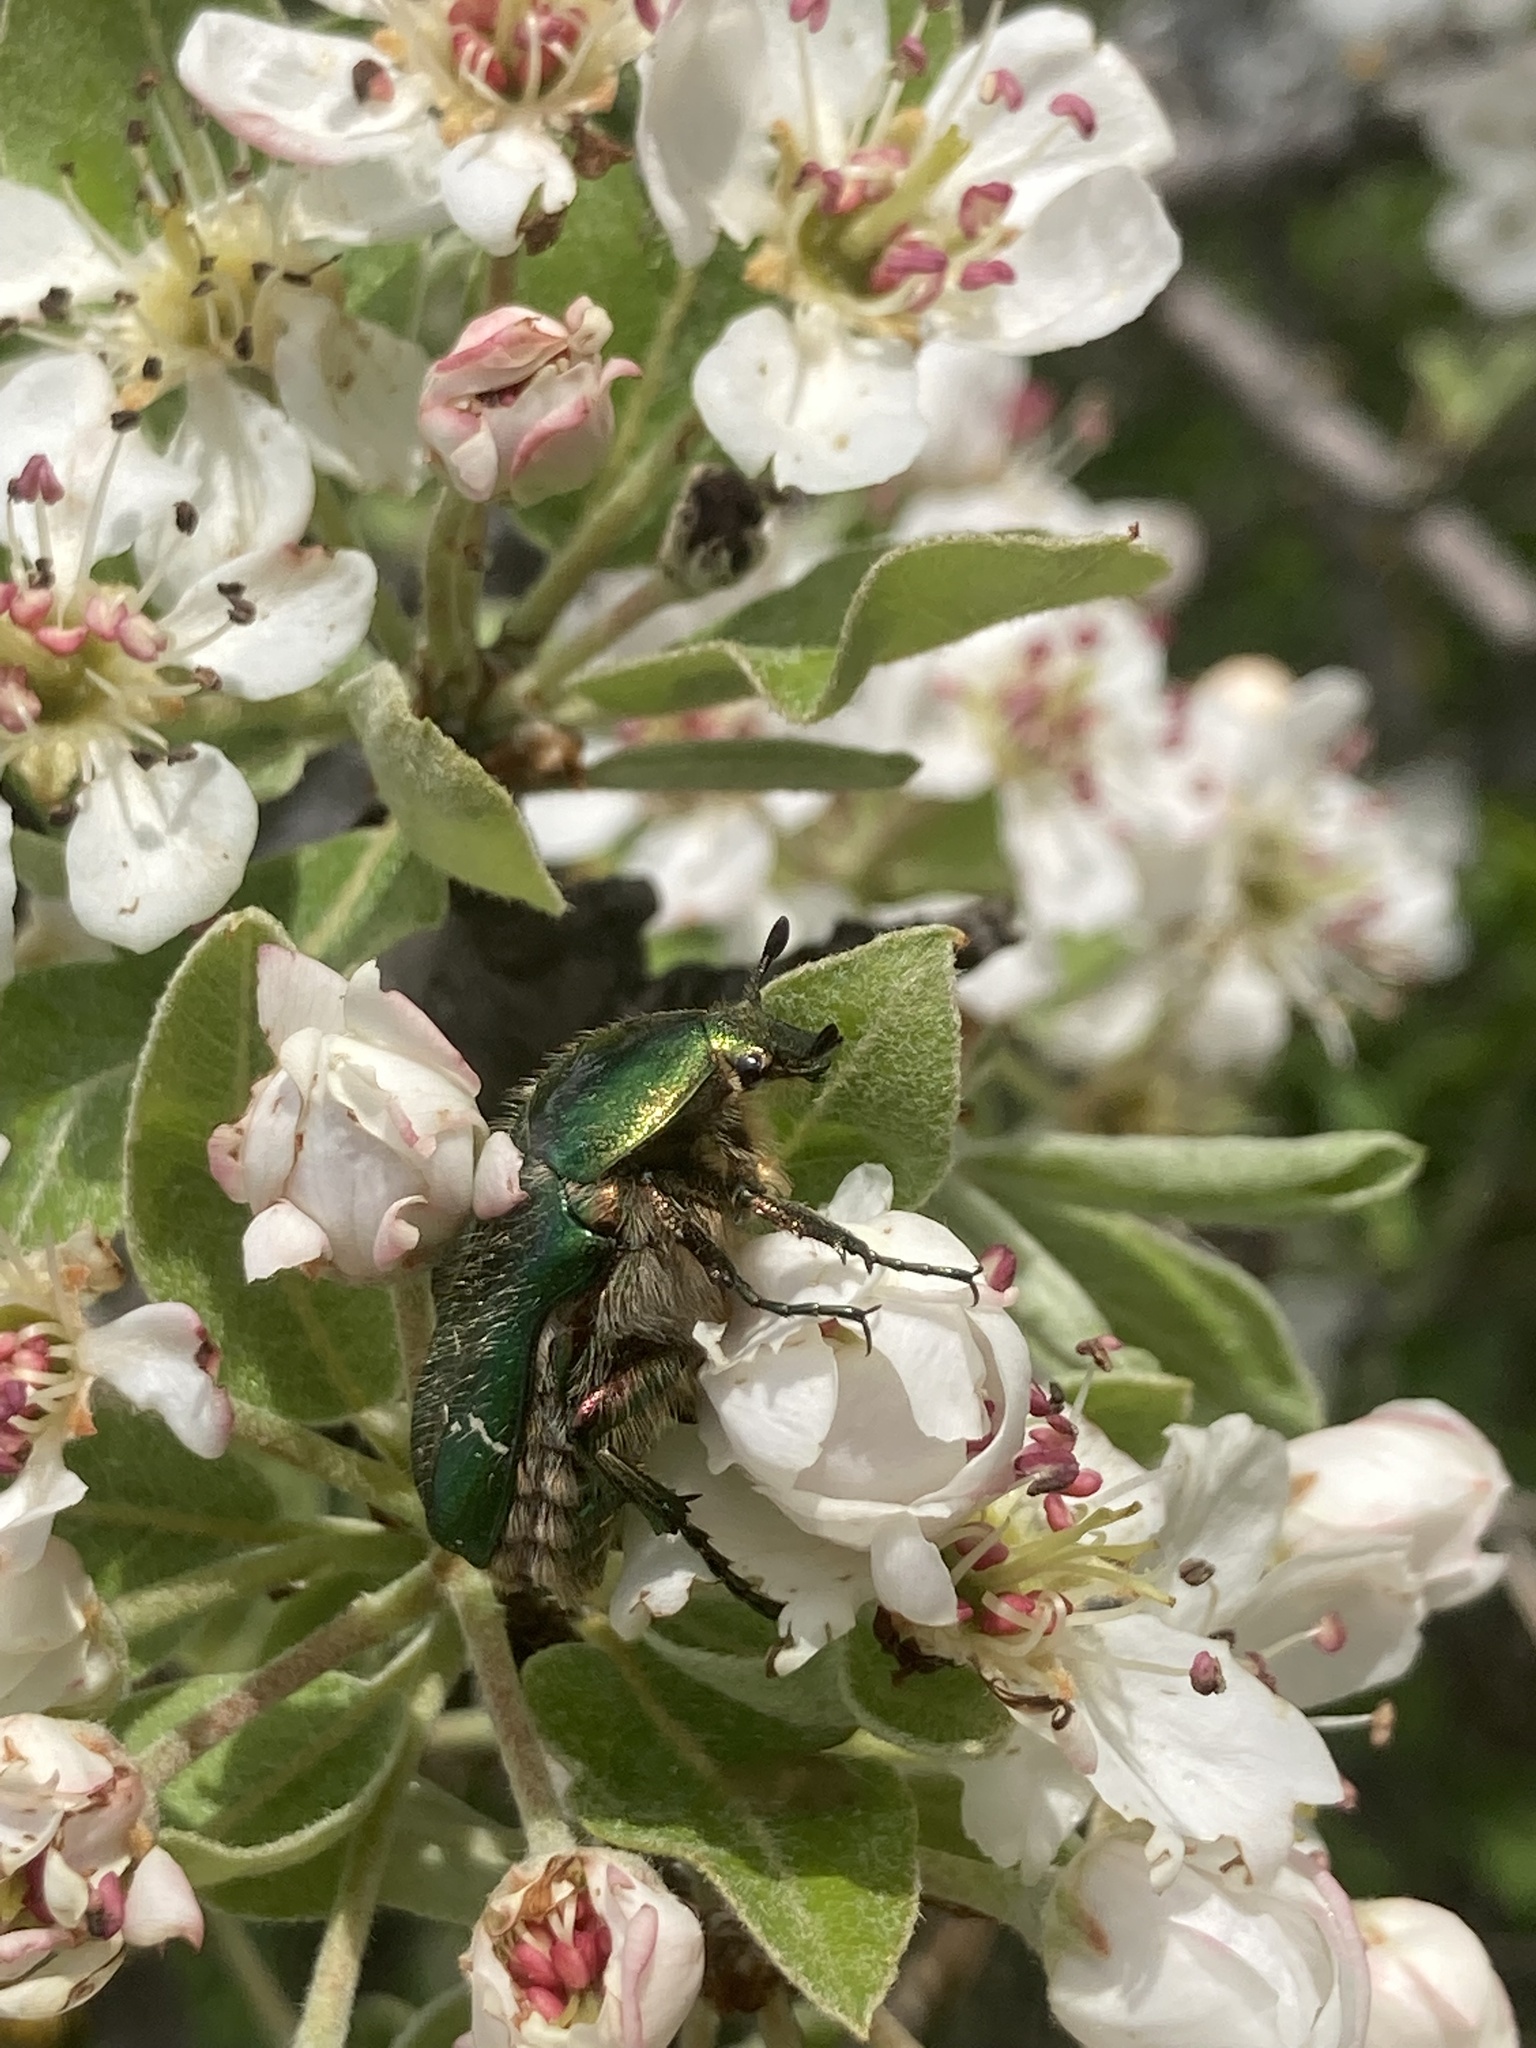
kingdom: Animalia
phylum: Arthropoda
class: Insecta
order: Coleoptera
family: Scarabaeidae
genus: Cetonia
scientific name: Cetonia aurata
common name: Rose chafer
